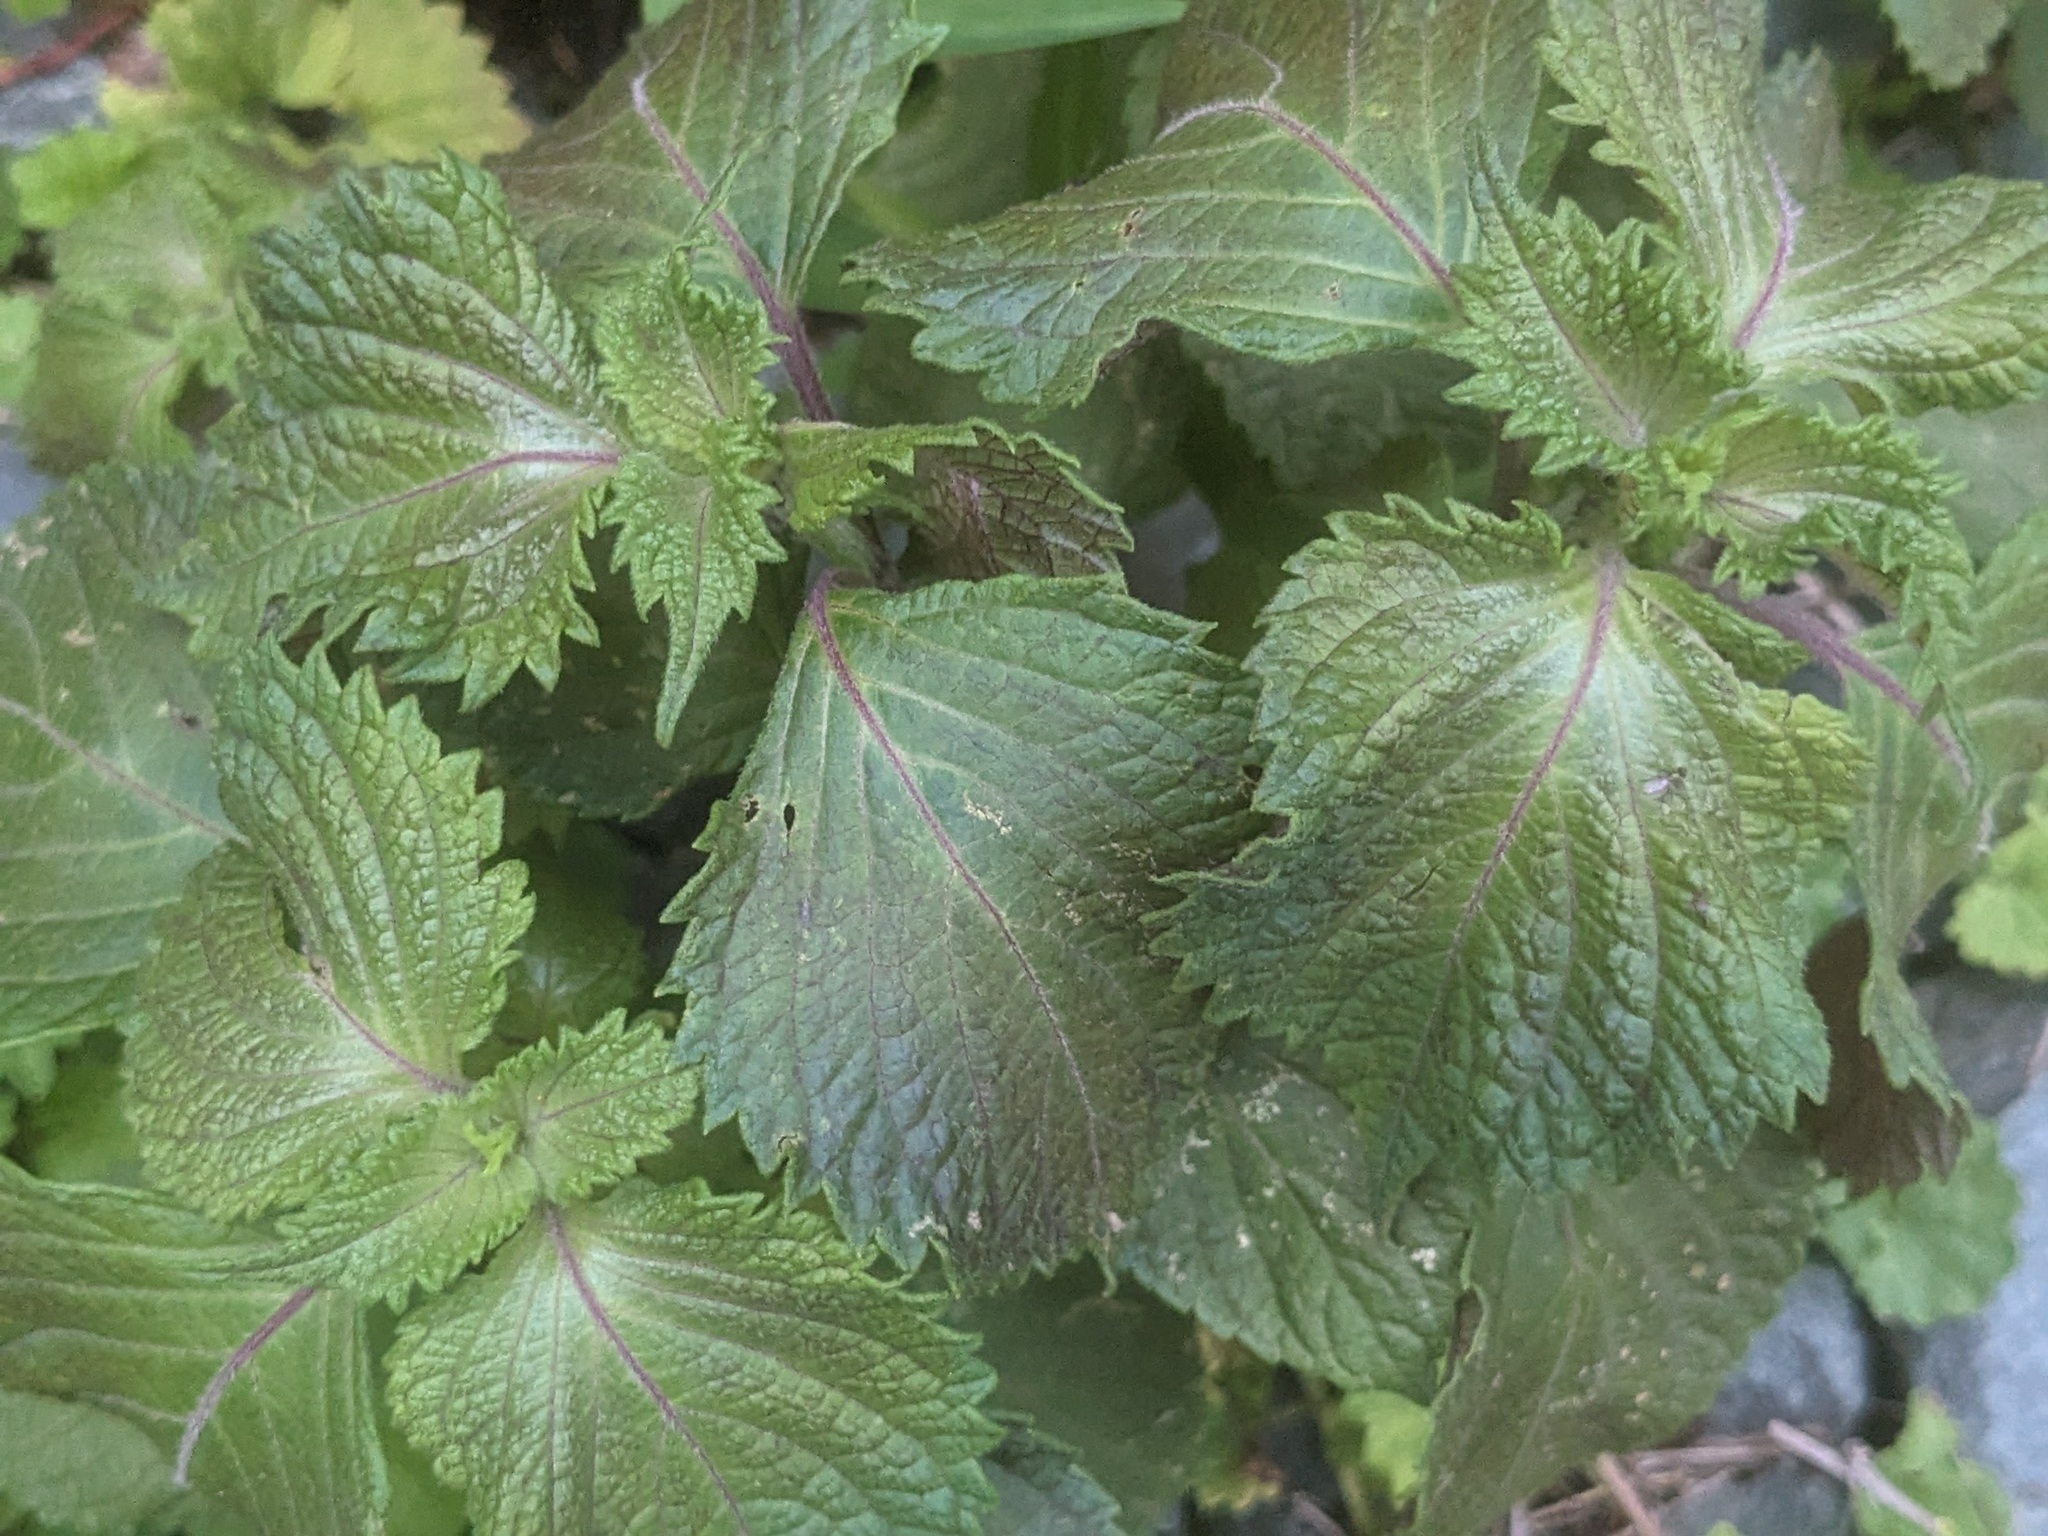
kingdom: Plantae
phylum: Tracheophyta
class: Magnoliopsida
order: Lamiales
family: Lamiaceae
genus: Perilla
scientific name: Perilla frutescens
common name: Perilla
